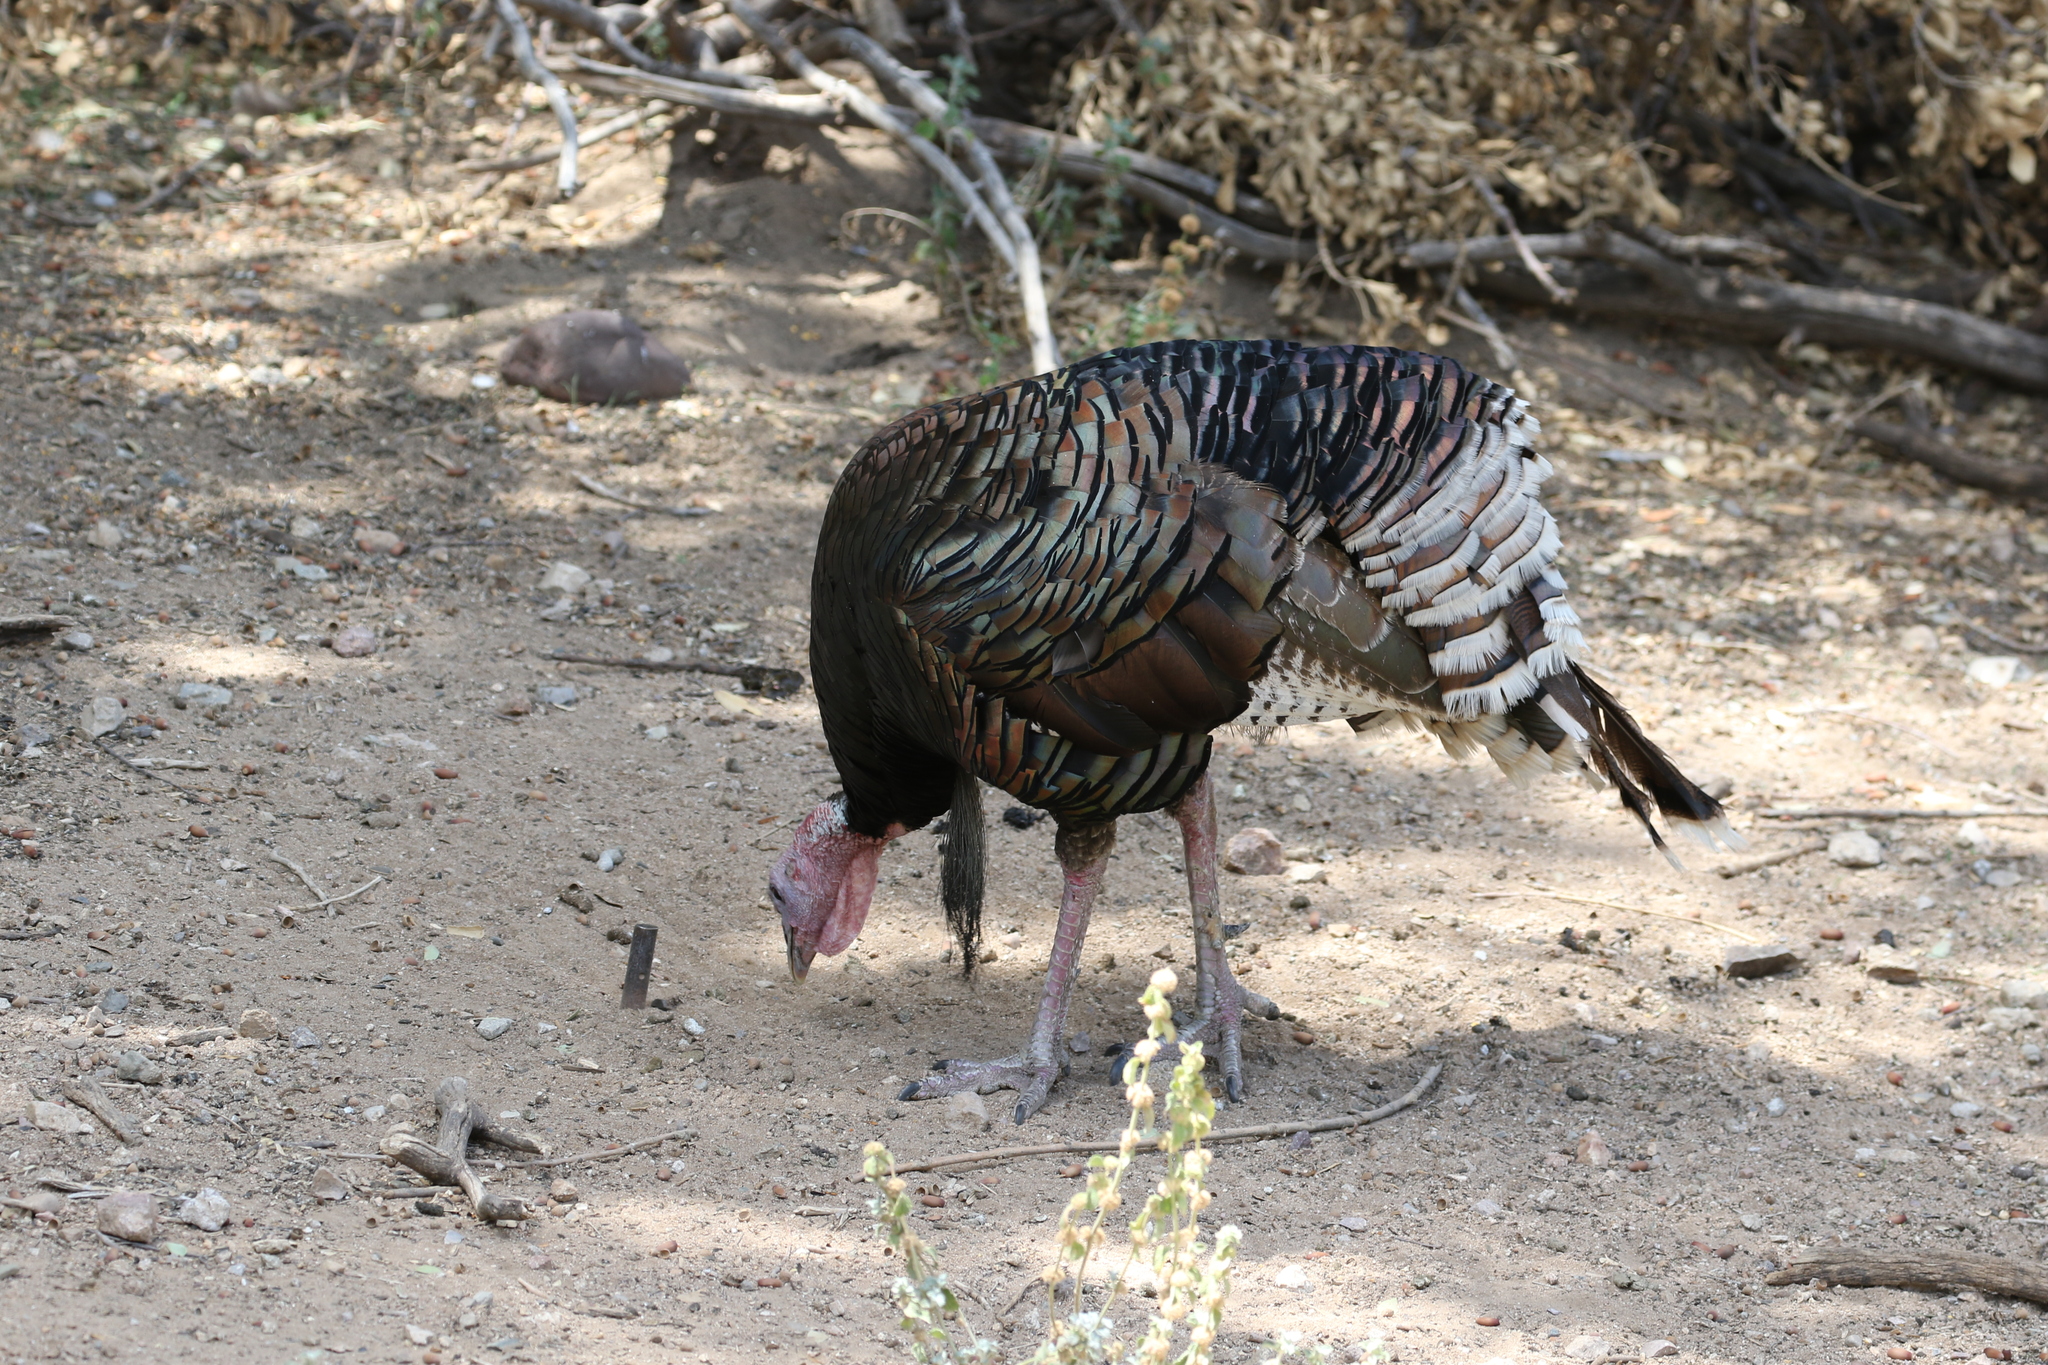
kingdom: Animalia
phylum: Chordata
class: Aves
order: Galliformes
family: Phasianidae
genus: Meleagris
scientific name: Meleagris gallopavo
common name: Wild turkey
